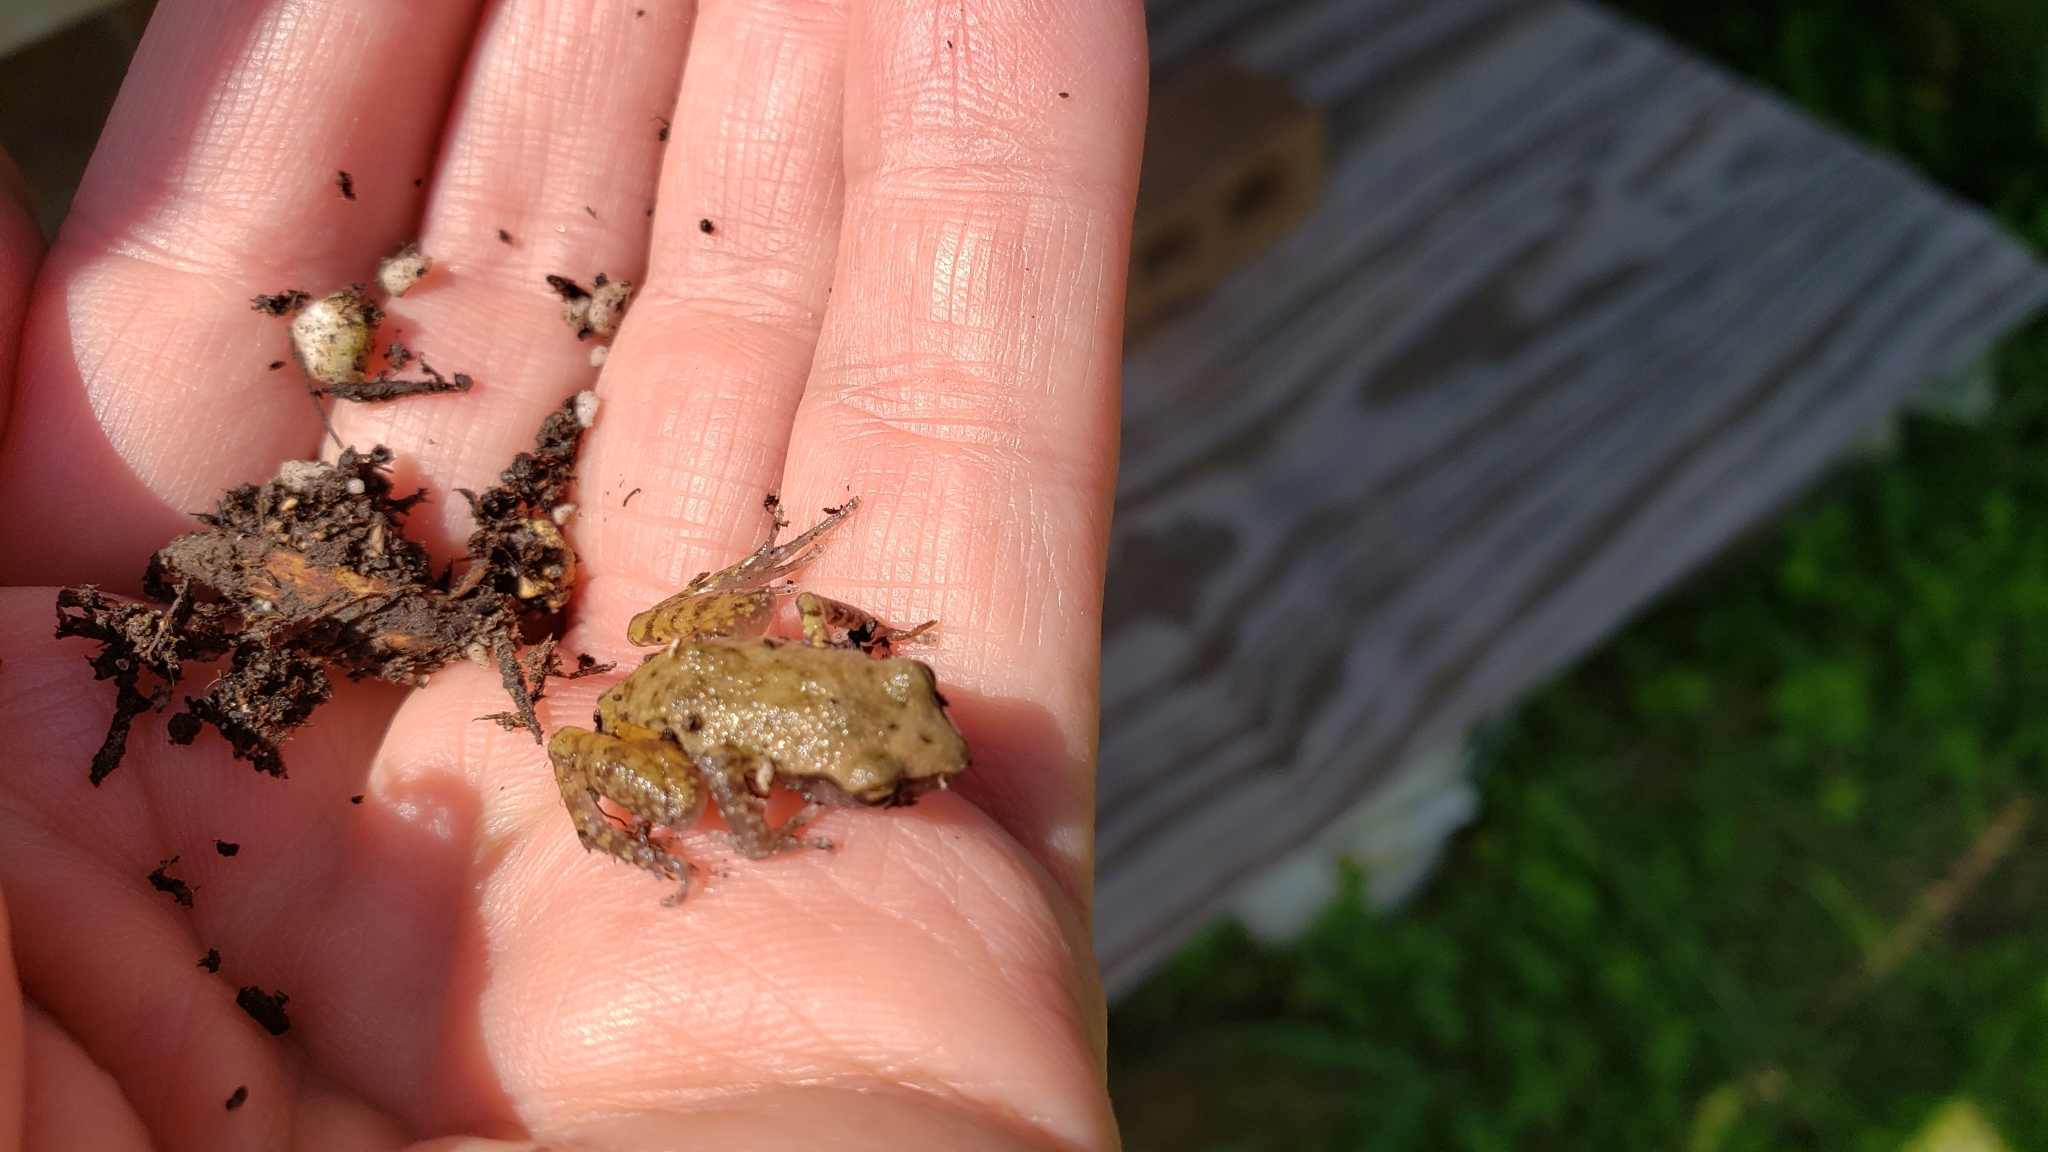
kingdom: Animalia
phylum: Chordata
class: Amphibia
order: Anura
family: Eleutherodactylidae
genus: Eleutherodactylus
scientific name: Eleutherodactylus campi
